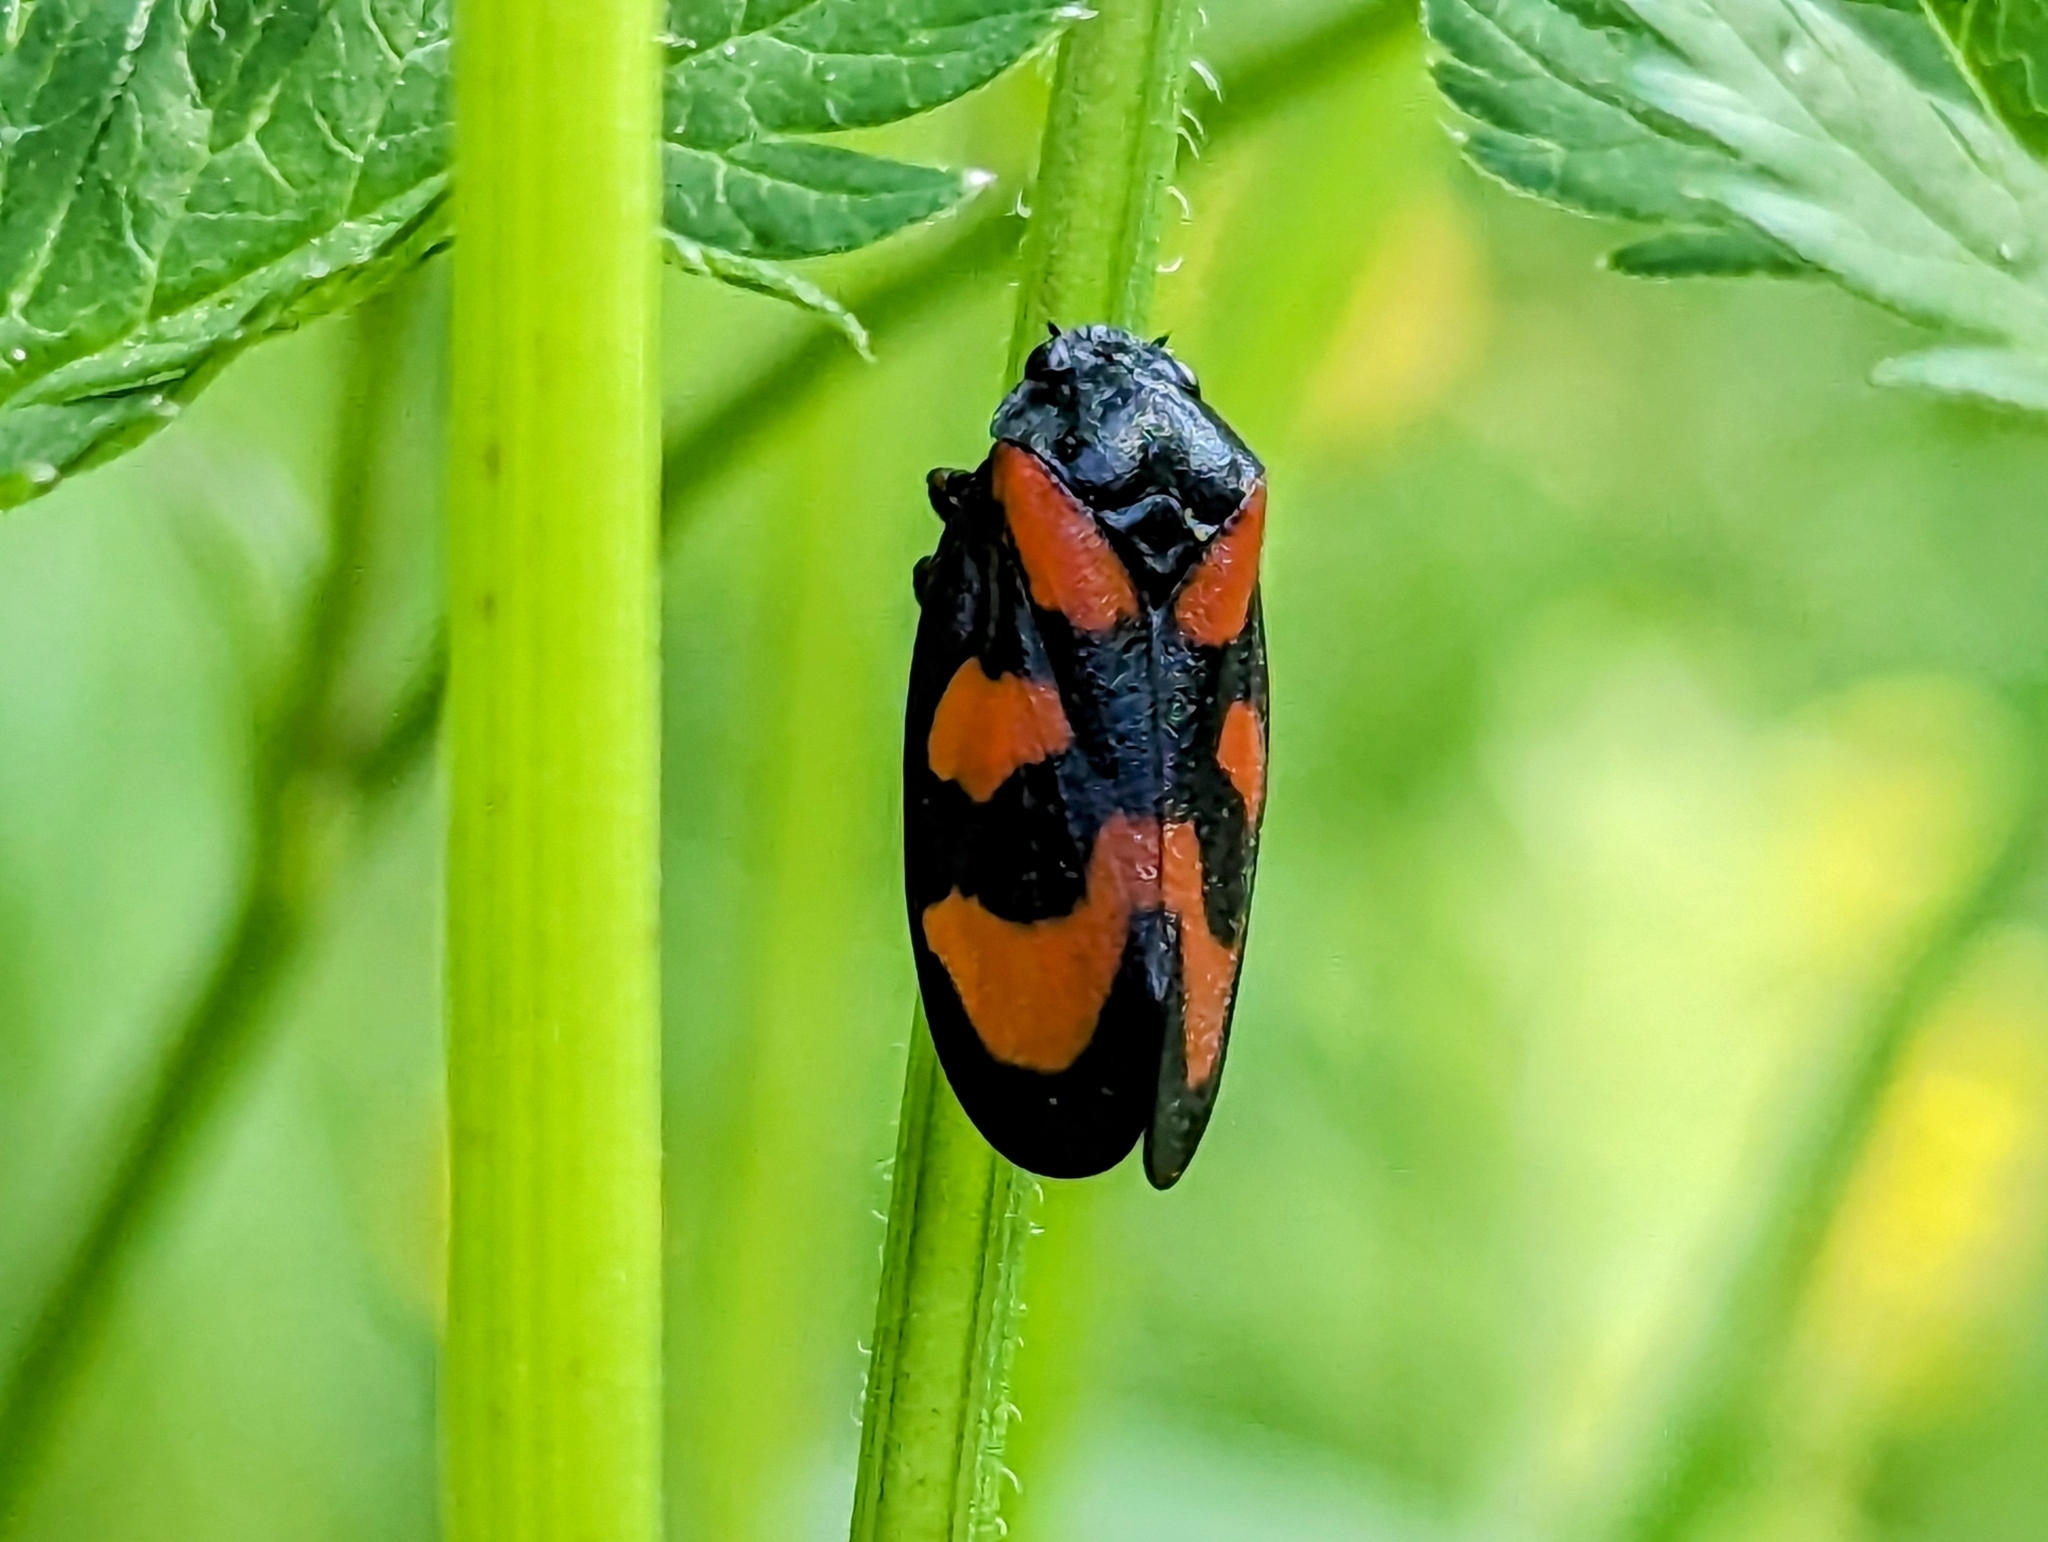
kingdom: Animalia
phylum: Arthropoda
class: Insecta
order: Hemiptera
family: Cercopidae
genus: Cercopis
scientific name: Cercopis vulnerata
